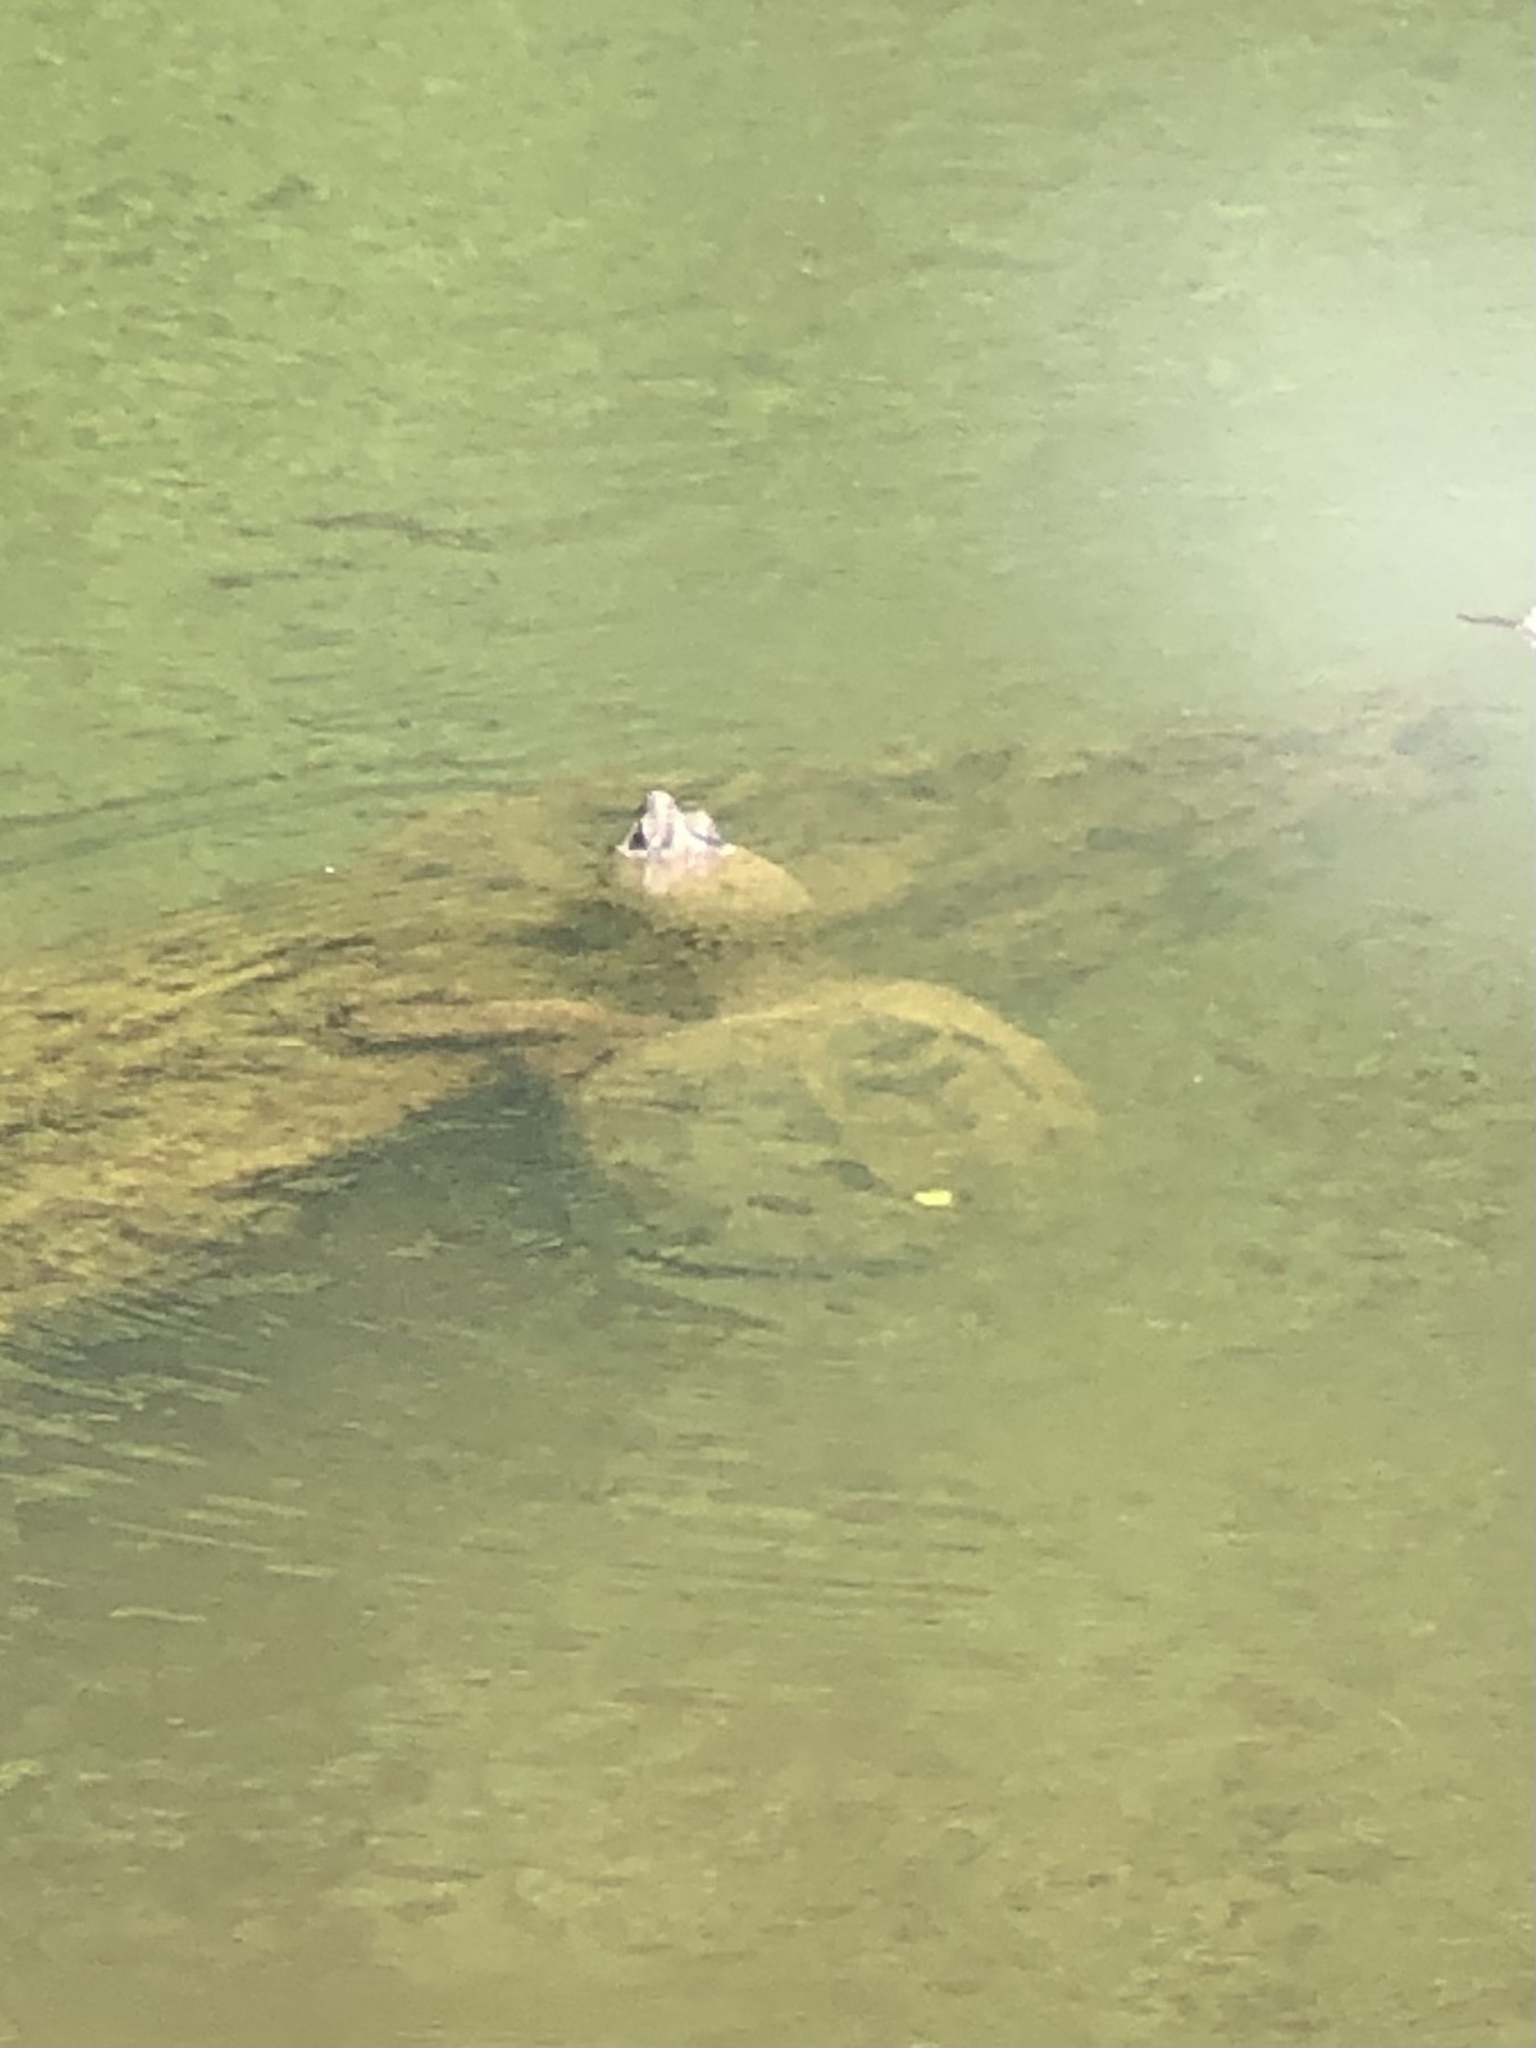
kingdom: Animalia
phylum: Chordata
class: Testudines
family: Chelydridae
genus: Chelydra
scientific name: Chelydra serpentina
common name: Common snapping turtle
